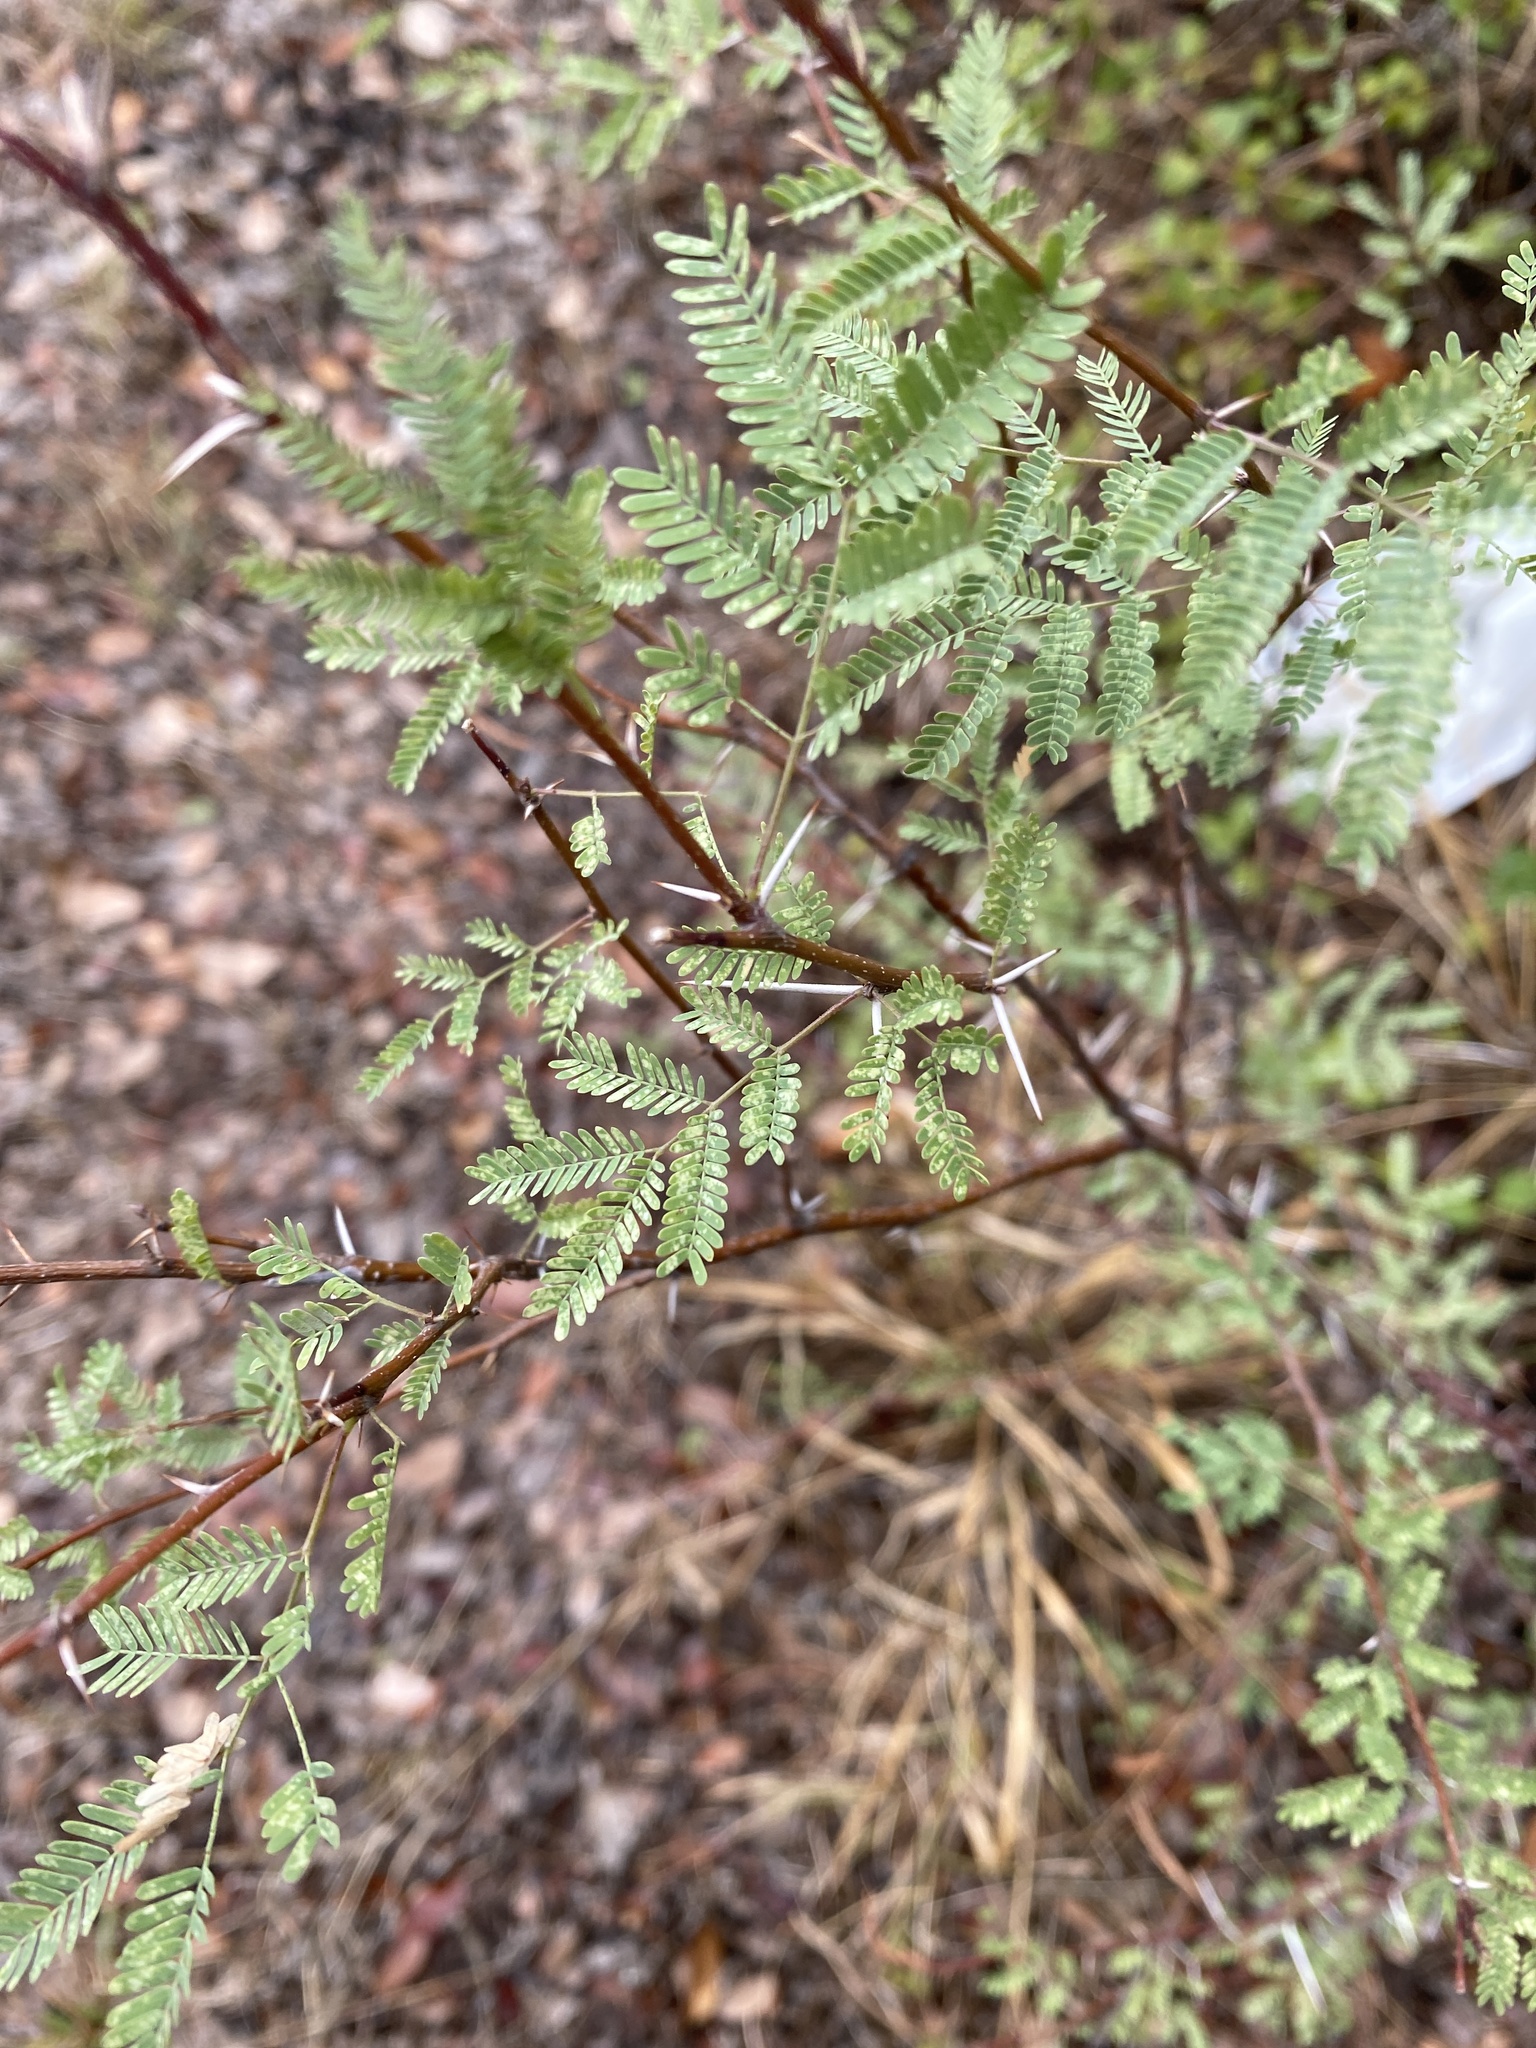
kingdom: Plantae
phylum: Tracheophyta
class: Magnoliopsida
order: Fabales
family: Fabaceae
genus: Vachellia
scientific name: Vachellia farnesiana
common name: Sweet acacia
